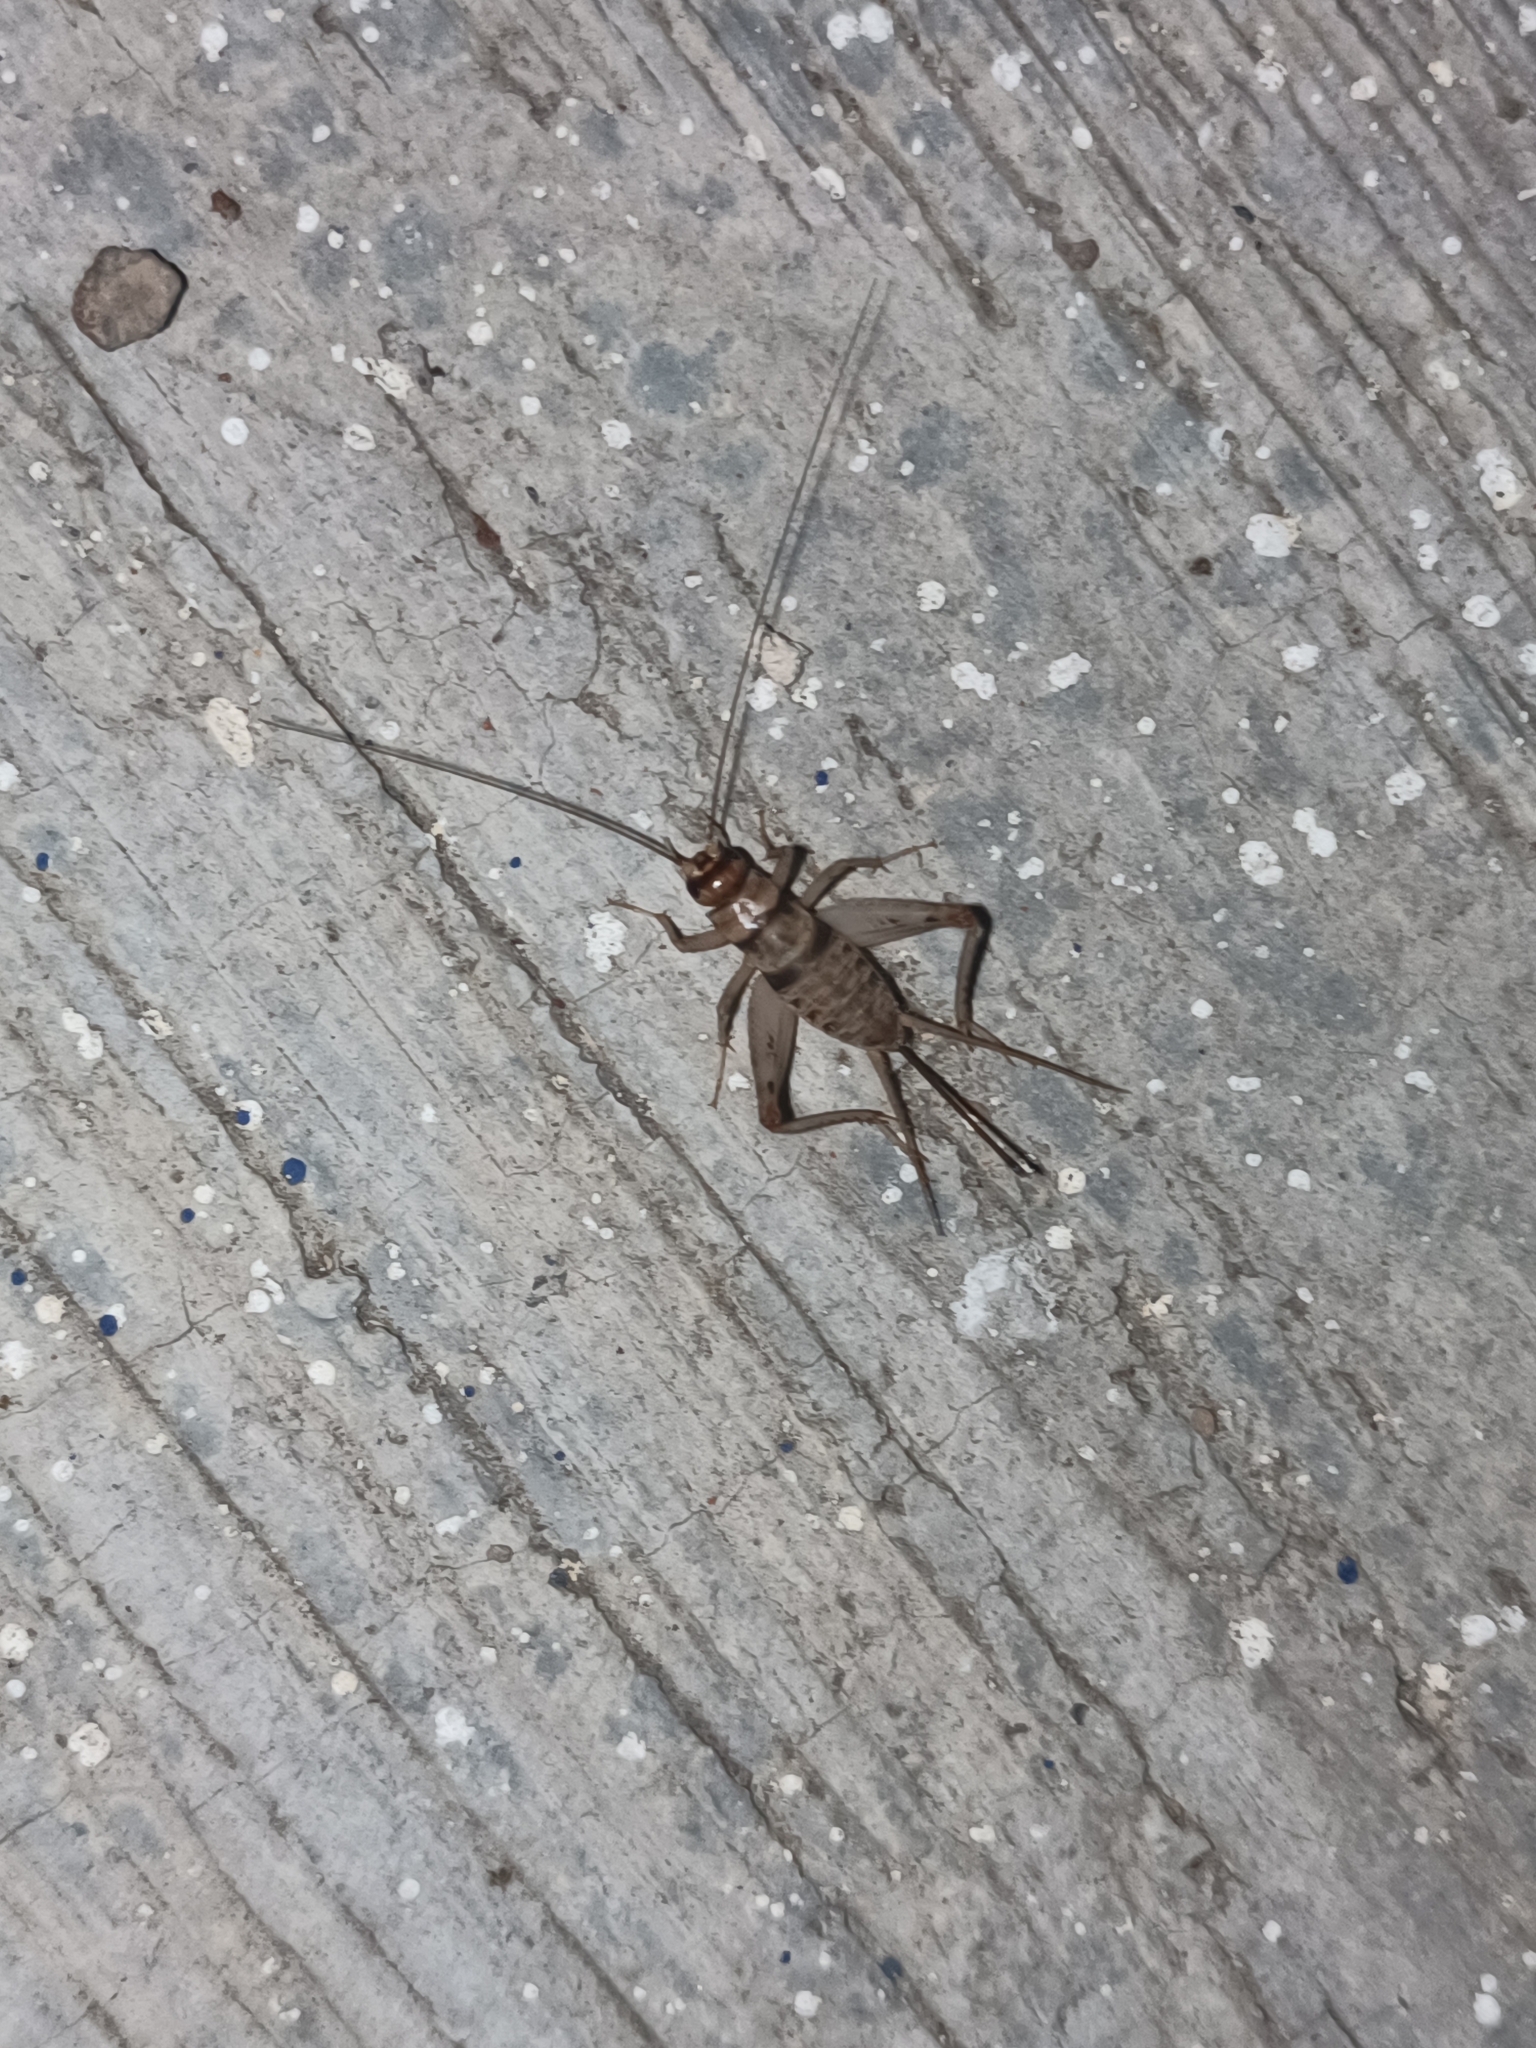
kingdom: Animalia
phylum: Arthropoda
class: Insecta
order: Orthoptera
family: Gryllidae
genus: Gryllodes
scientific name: Gryllodes sigillatus
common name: Tropical house cricket
